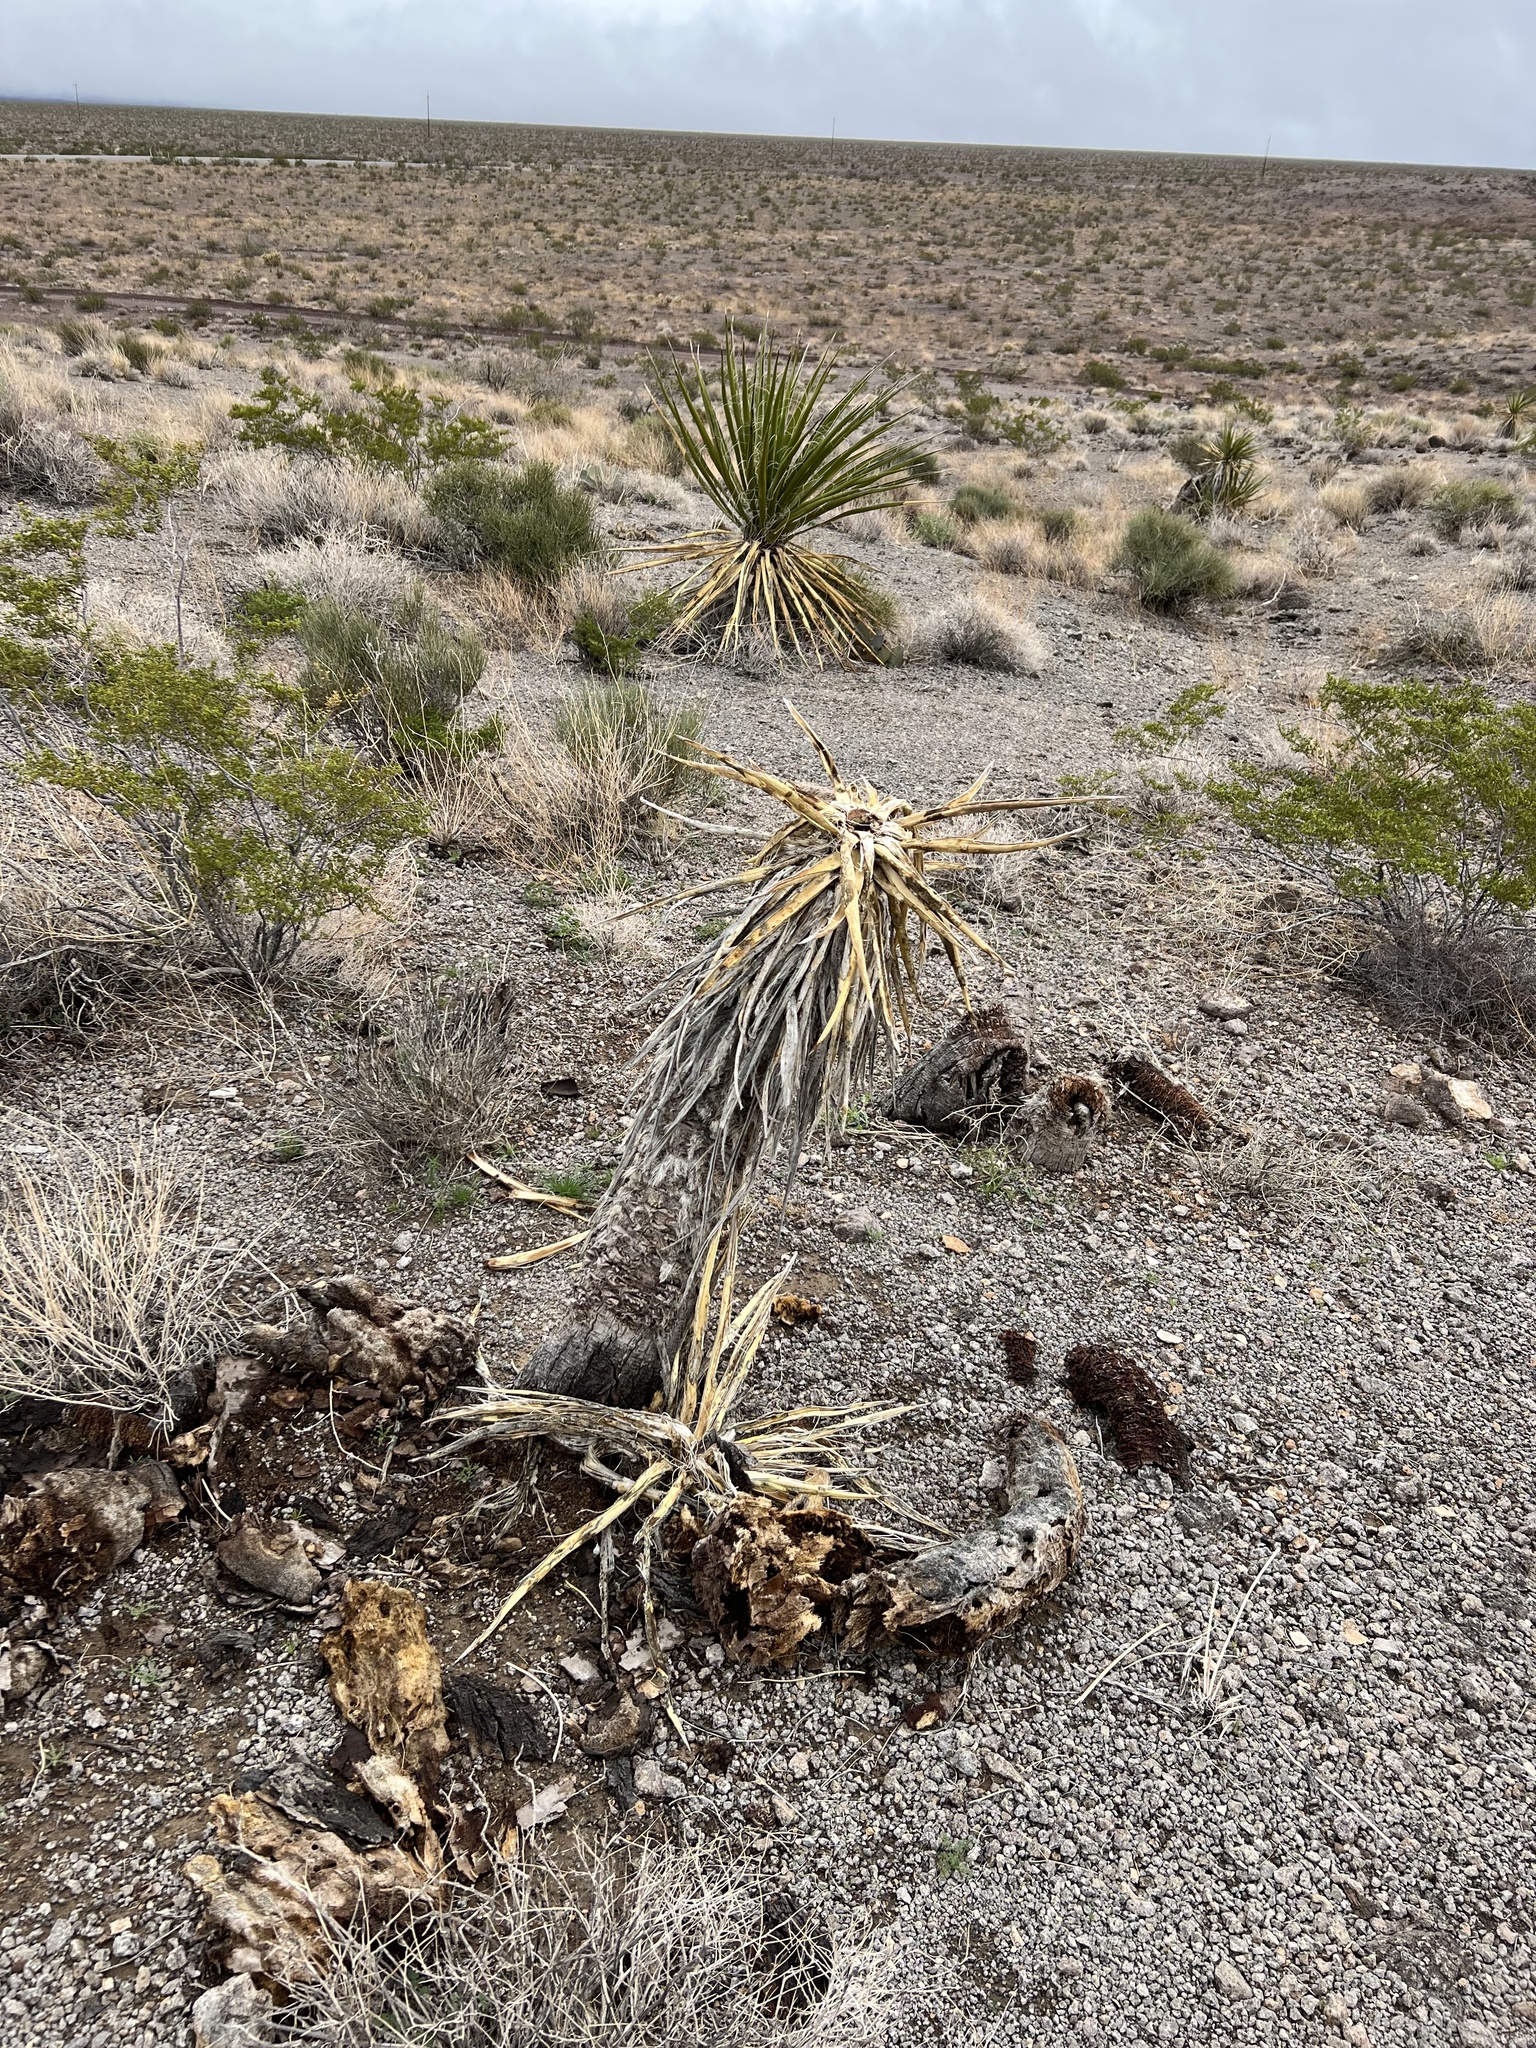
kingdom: Plantae
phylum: Tracheophyta
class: Liliopsida
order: Asparagales
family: Asparagaceae
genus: Yucca
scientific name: Yucca schidigera
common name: Mojave yucca
